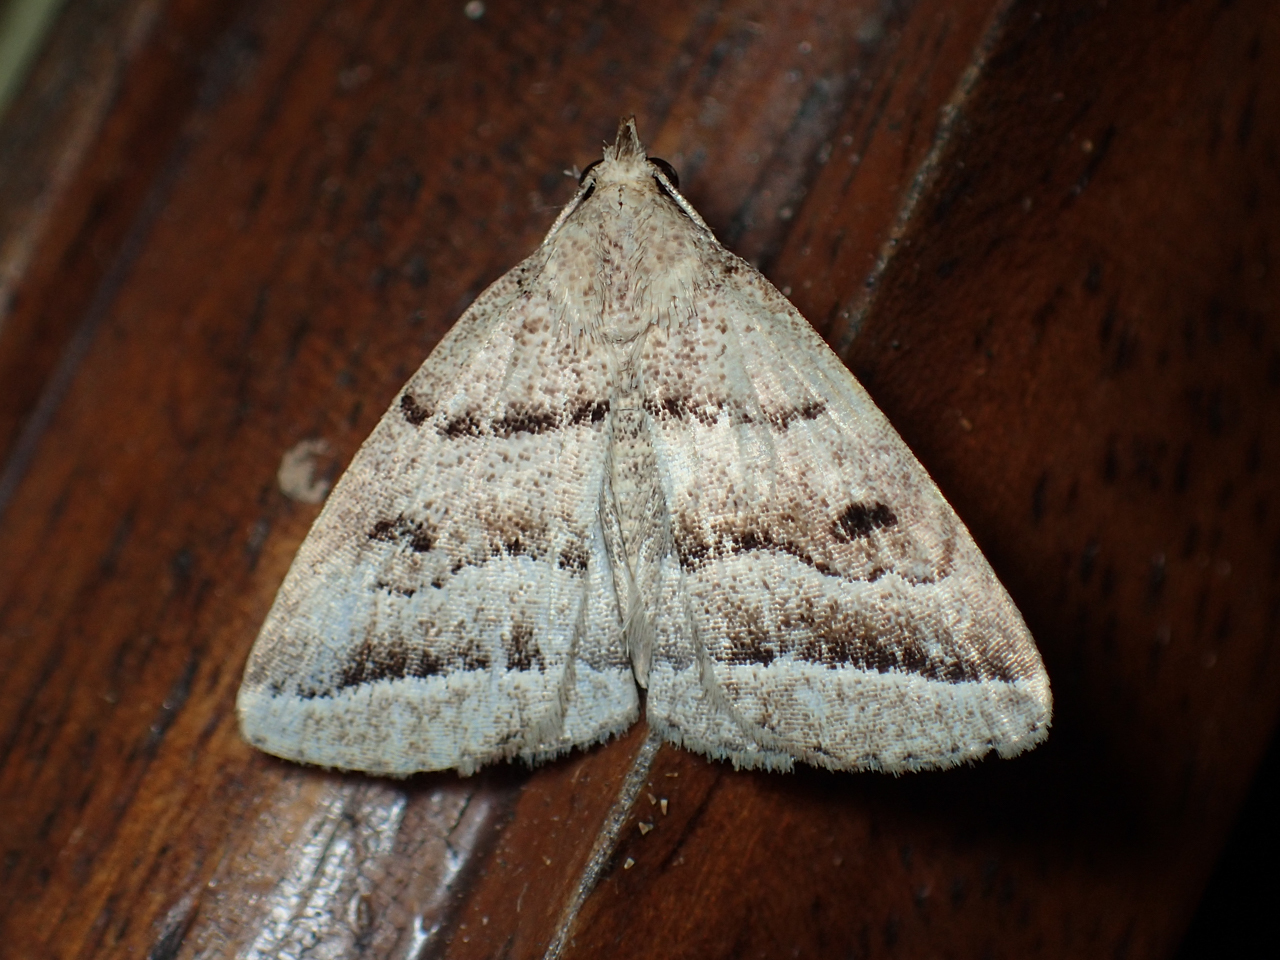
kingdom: Animalia
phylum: Arthropoda
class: Insecta
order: Lepidoptera
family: Erebidae
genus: Zanclognatha
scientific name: Zanclognatha atrilineella
